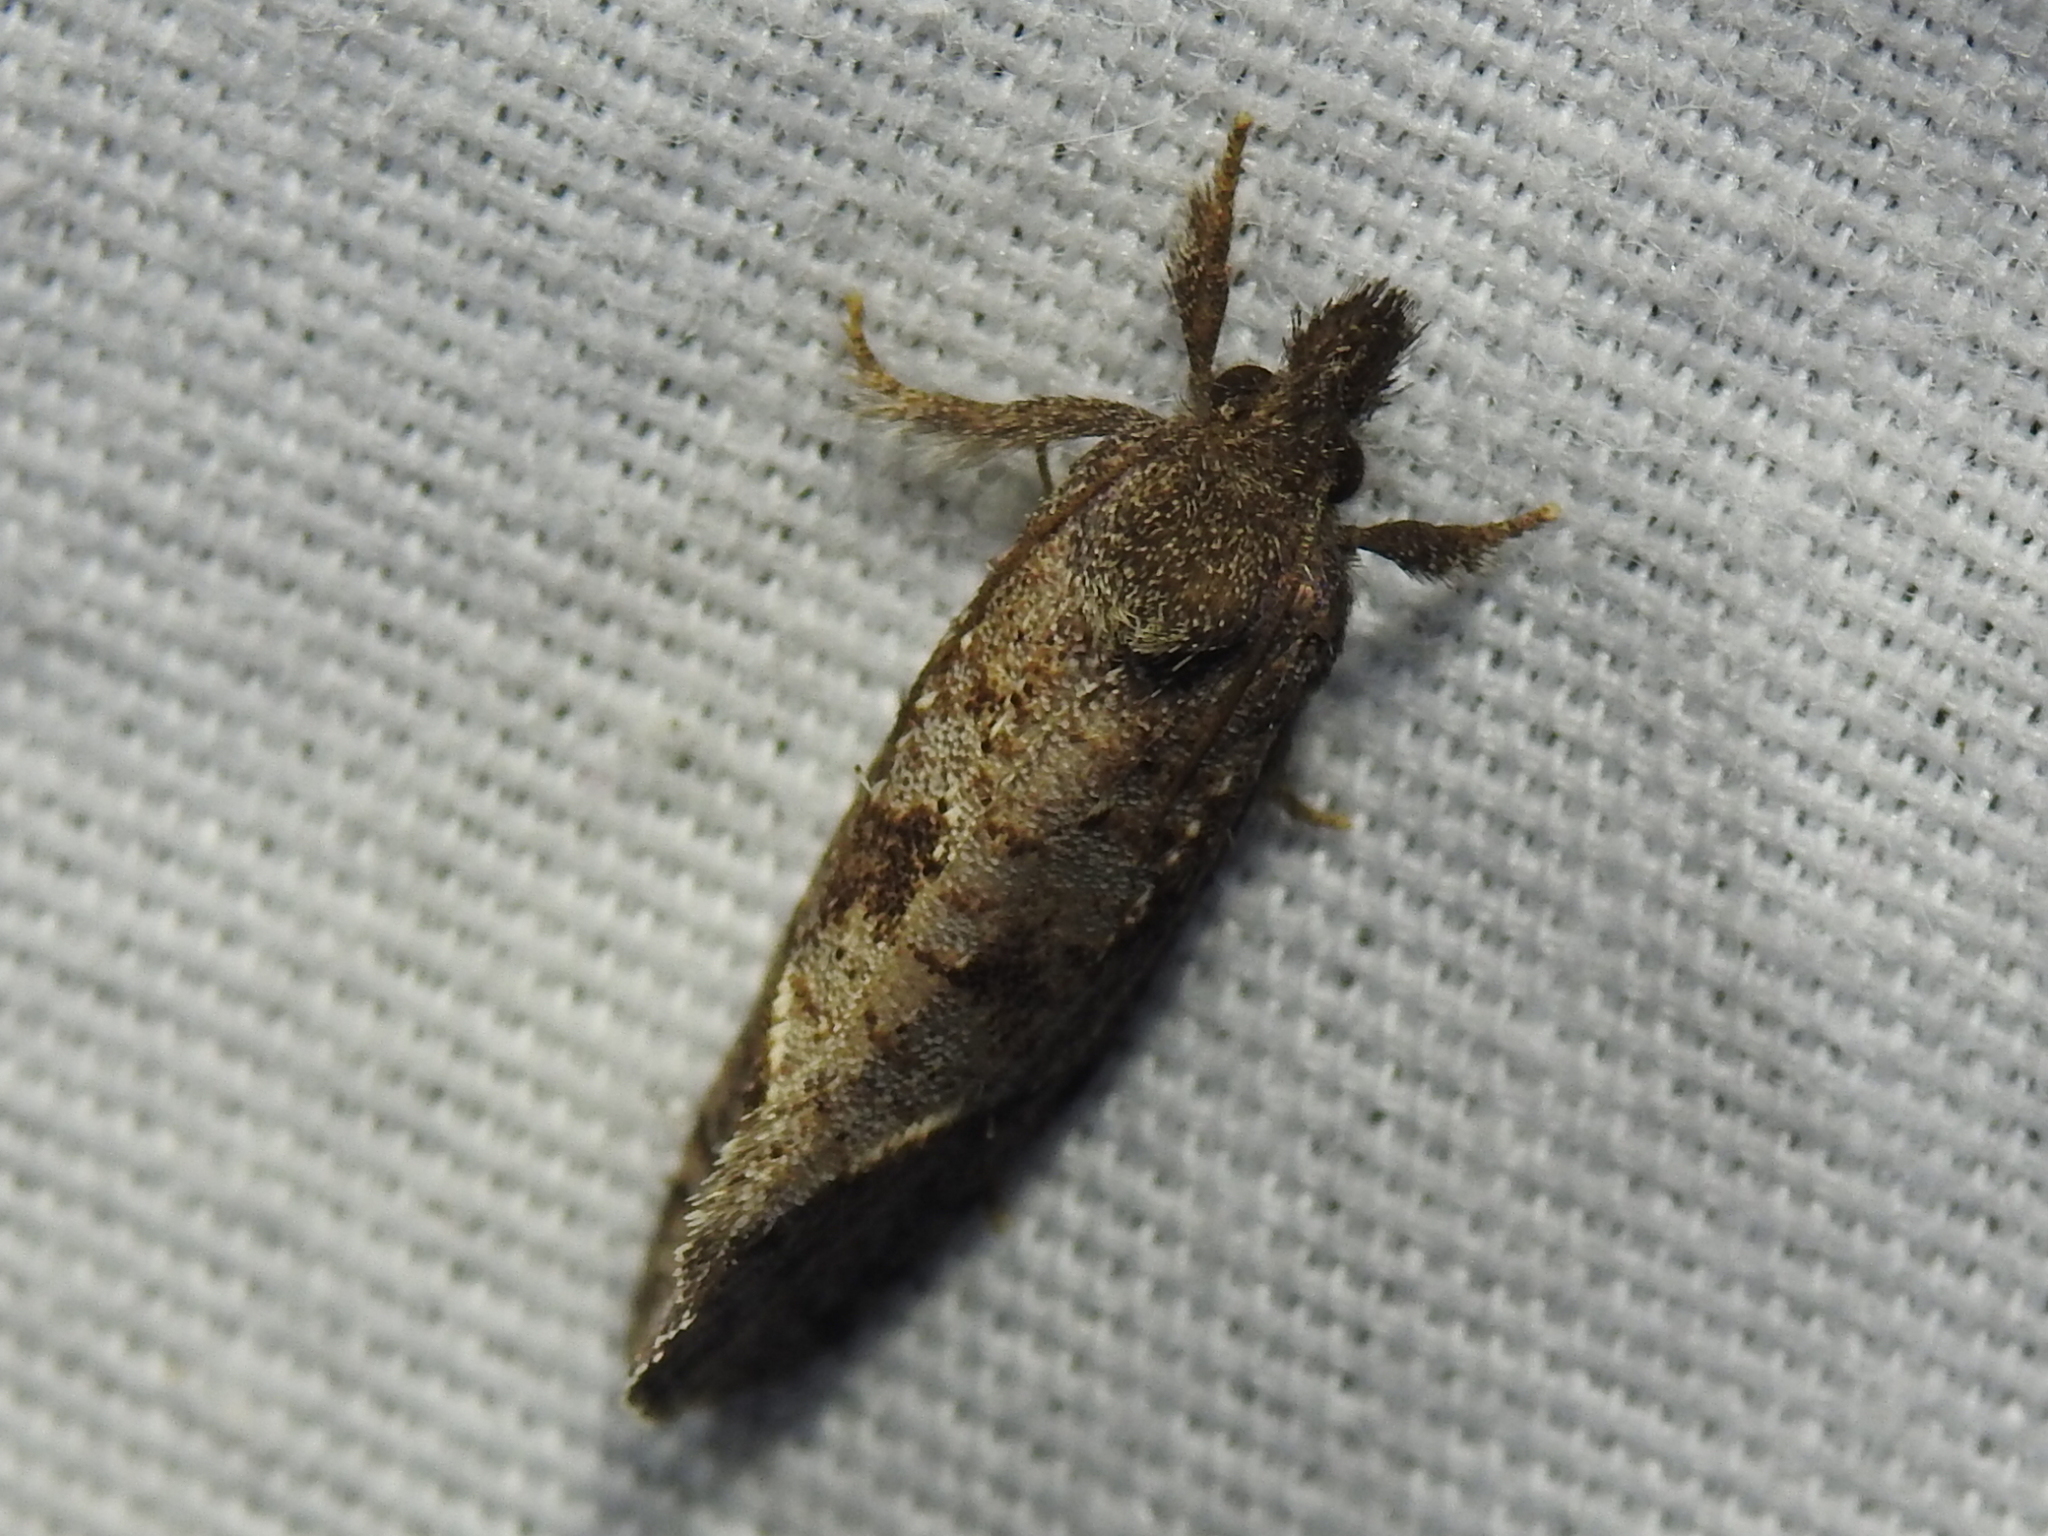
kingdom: Animalia
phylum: Arthropoda
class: Insecta
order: Lepidoptera
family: Tineidae
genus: Acrolophus
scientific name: Acrolophus texanella
